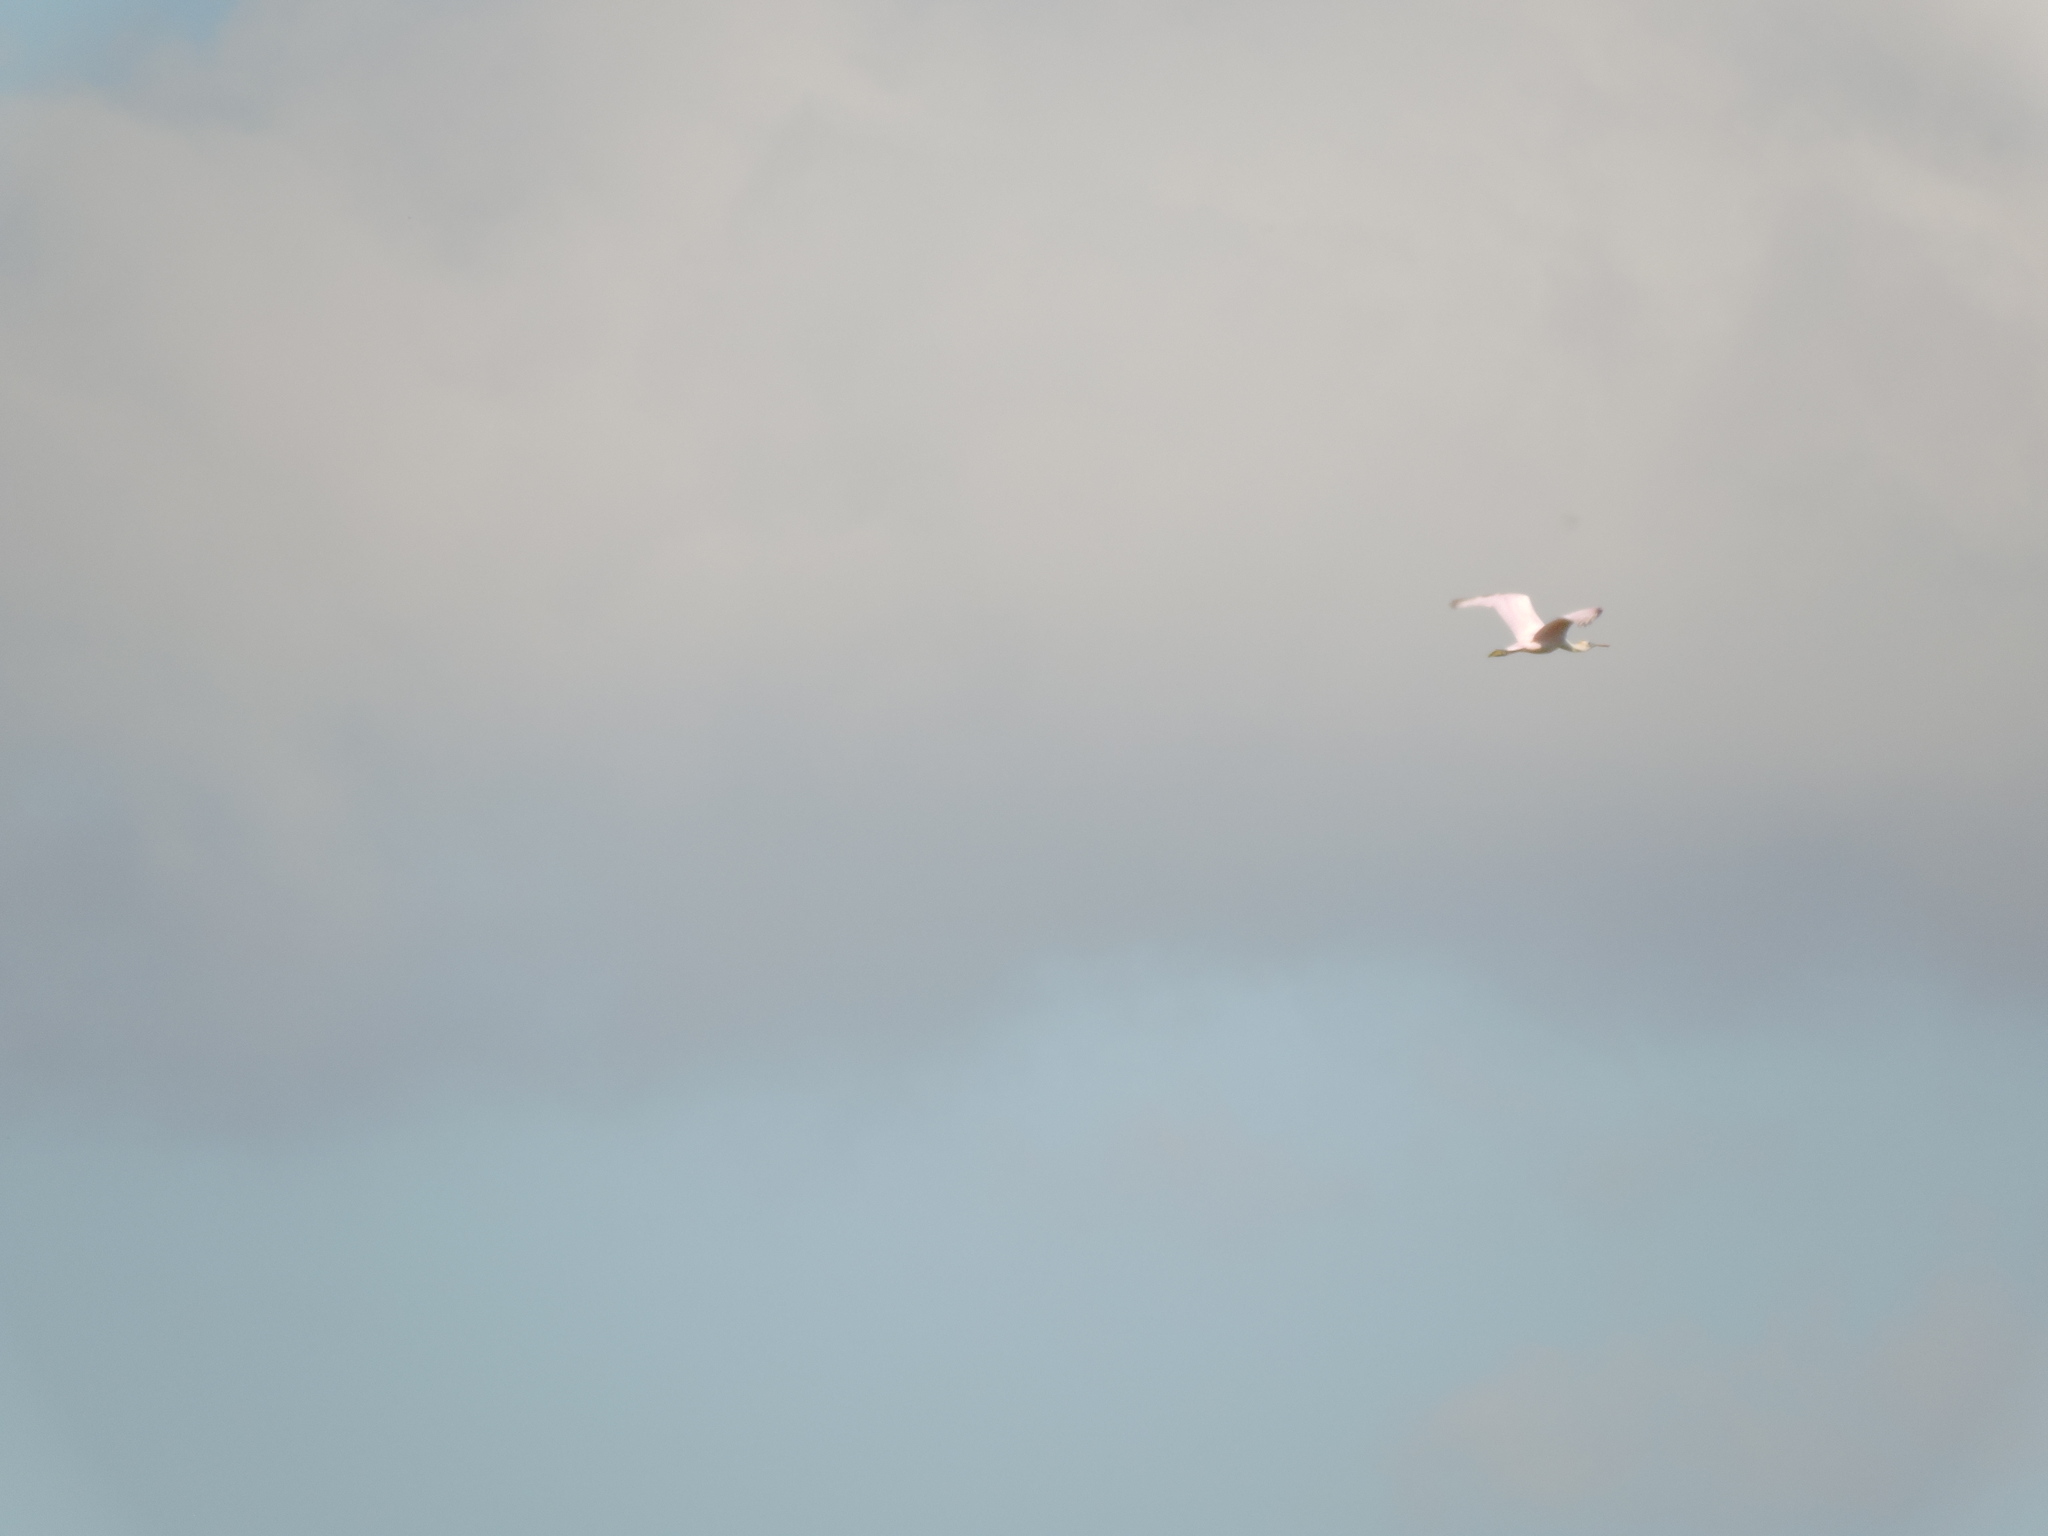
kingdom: Animalia
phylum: Chordata
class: Aves
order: Pelecaniformes
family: Threskiornithidae
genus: Platalea
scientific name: Platalea ajaja
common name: Roseate spoonbill
